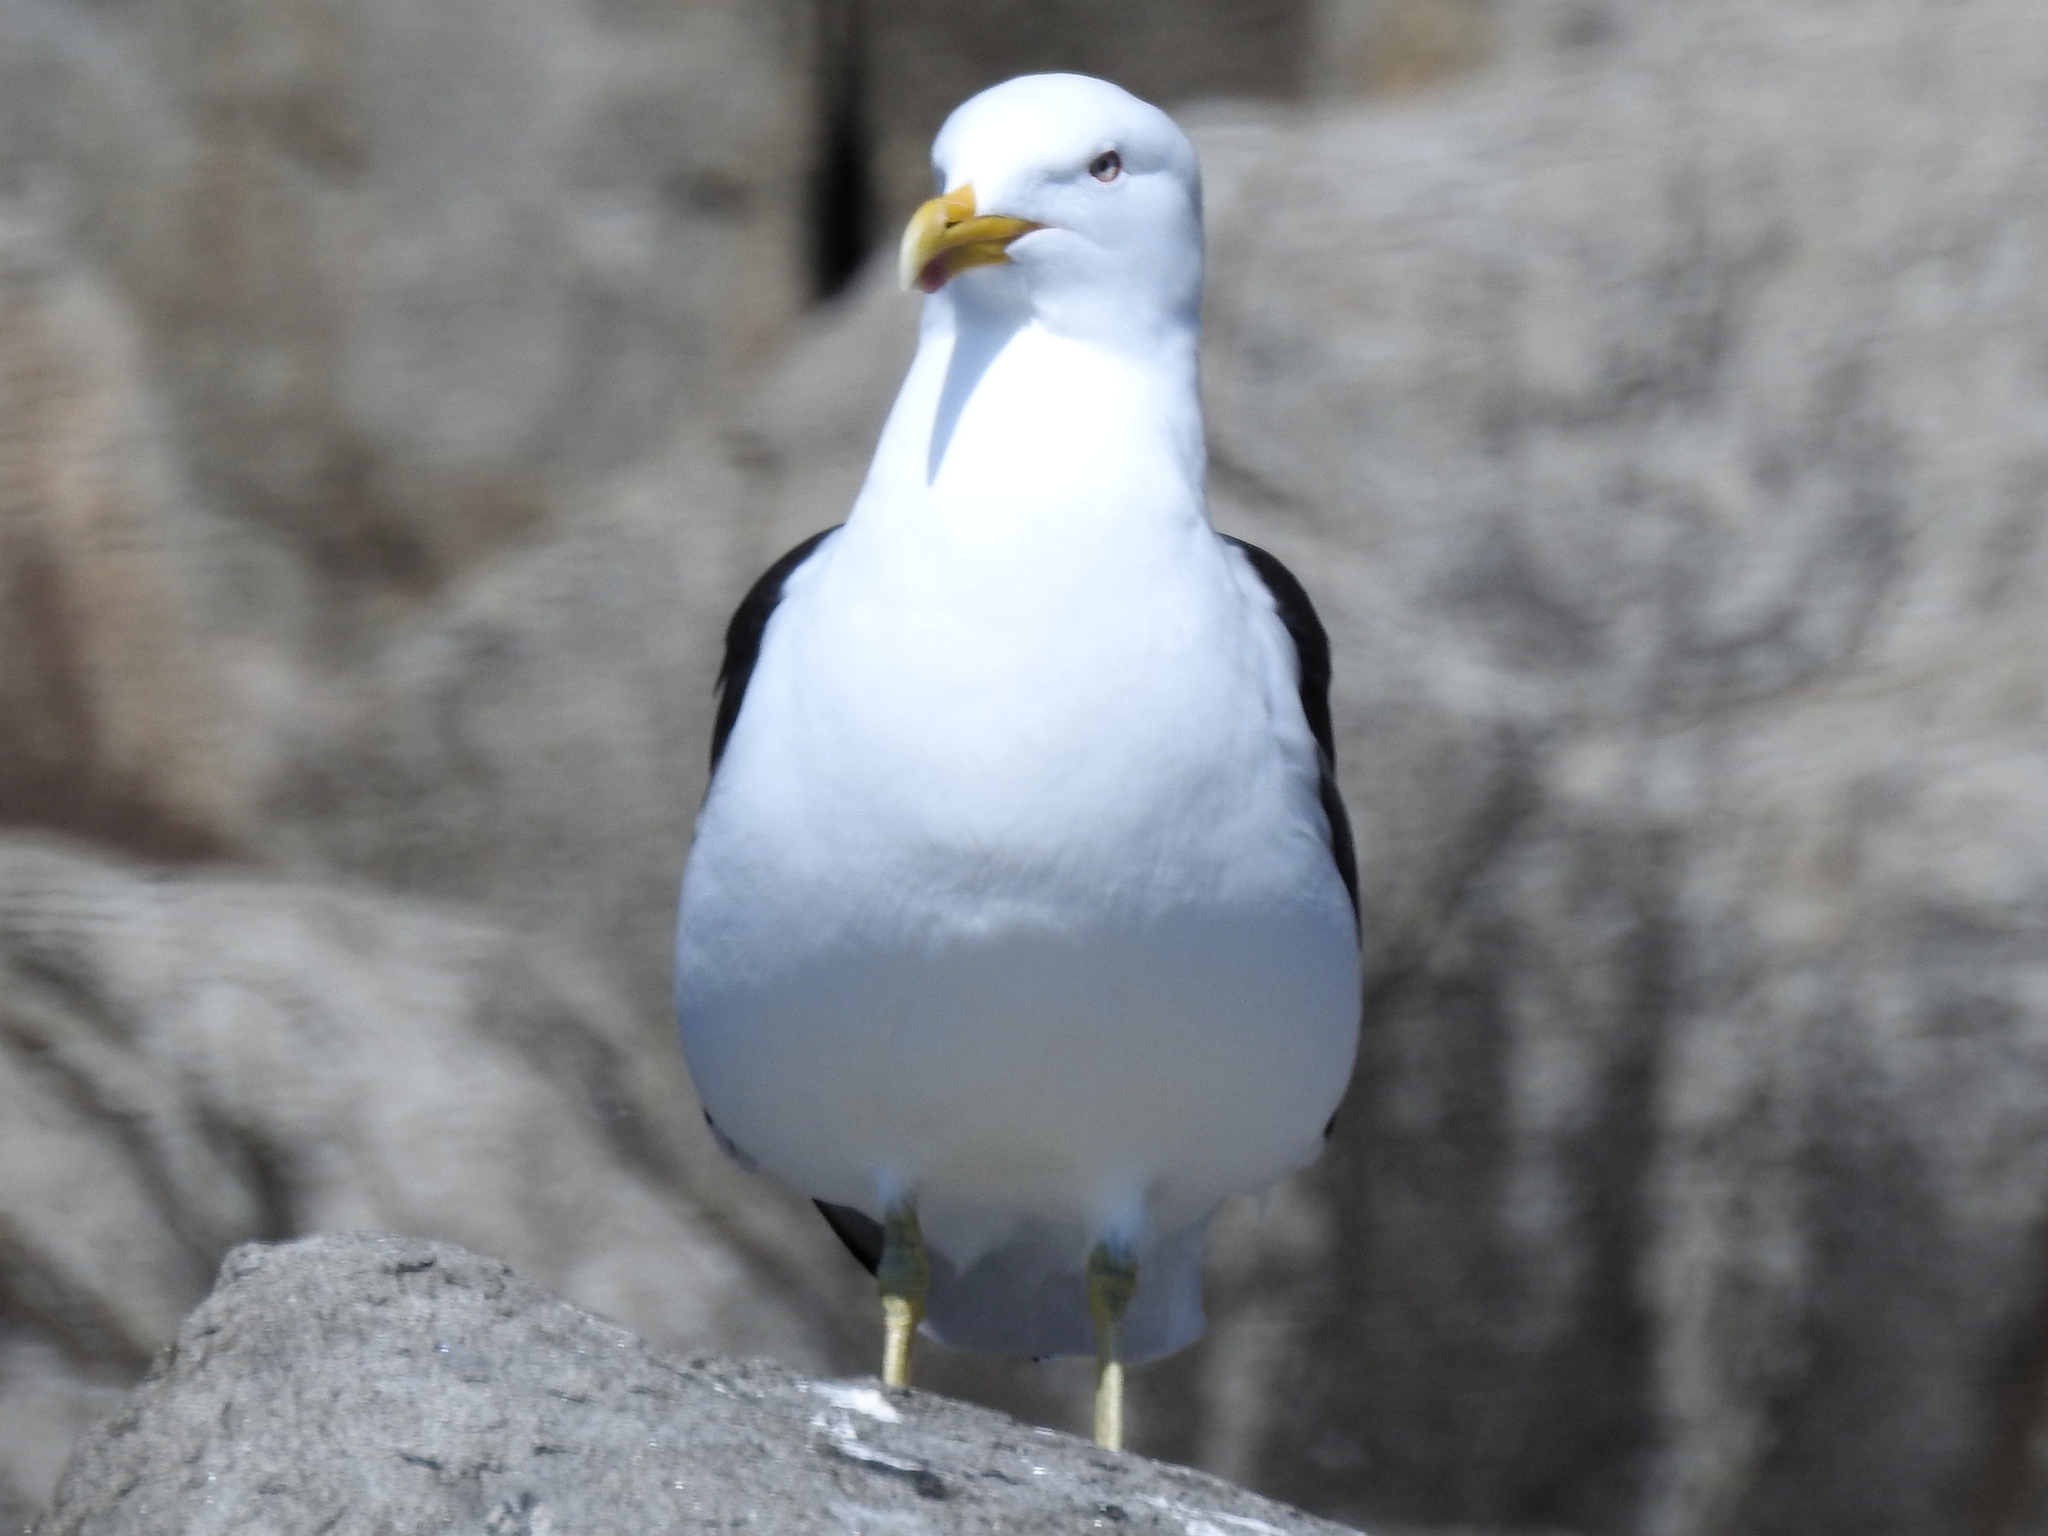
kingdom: Animalia
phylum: Chordata
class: Aves
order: Charadriiformes
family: Laridae
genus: Larus
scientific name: Larus dominicanus
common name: Kelp gull
